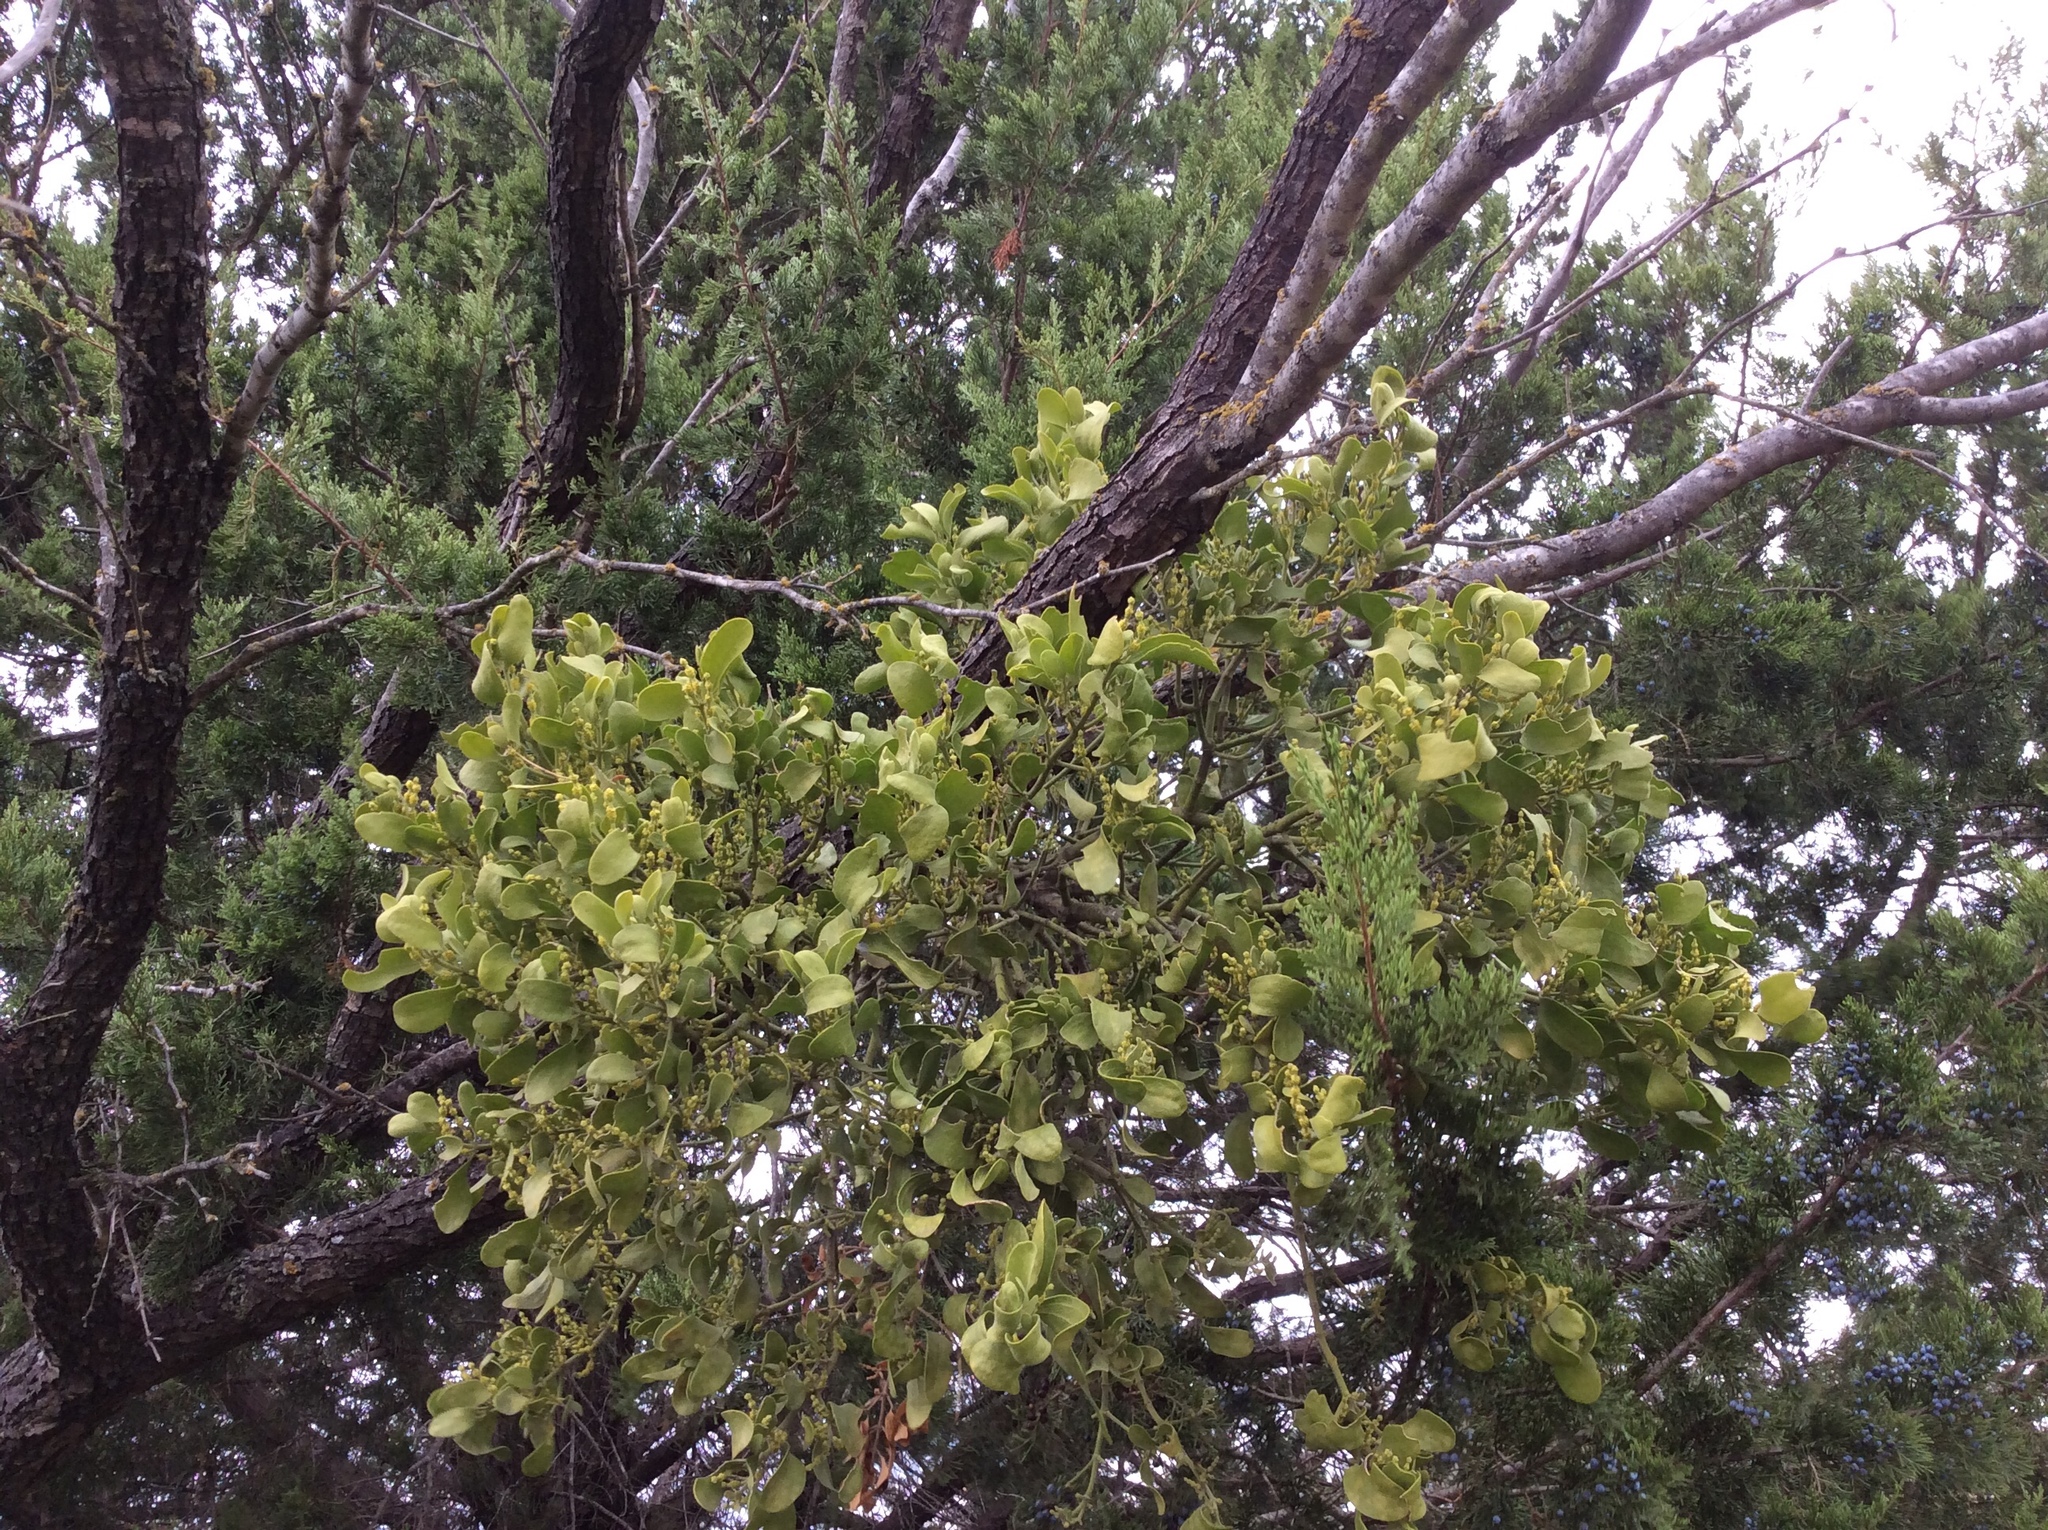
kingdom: Plantae
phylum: Tracheophyta
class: Magnoliopsida
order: Santalales
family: Viscaceae
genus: Phoradendron
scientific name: Phoradendron leucarpum
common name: Pacific mistletoe
